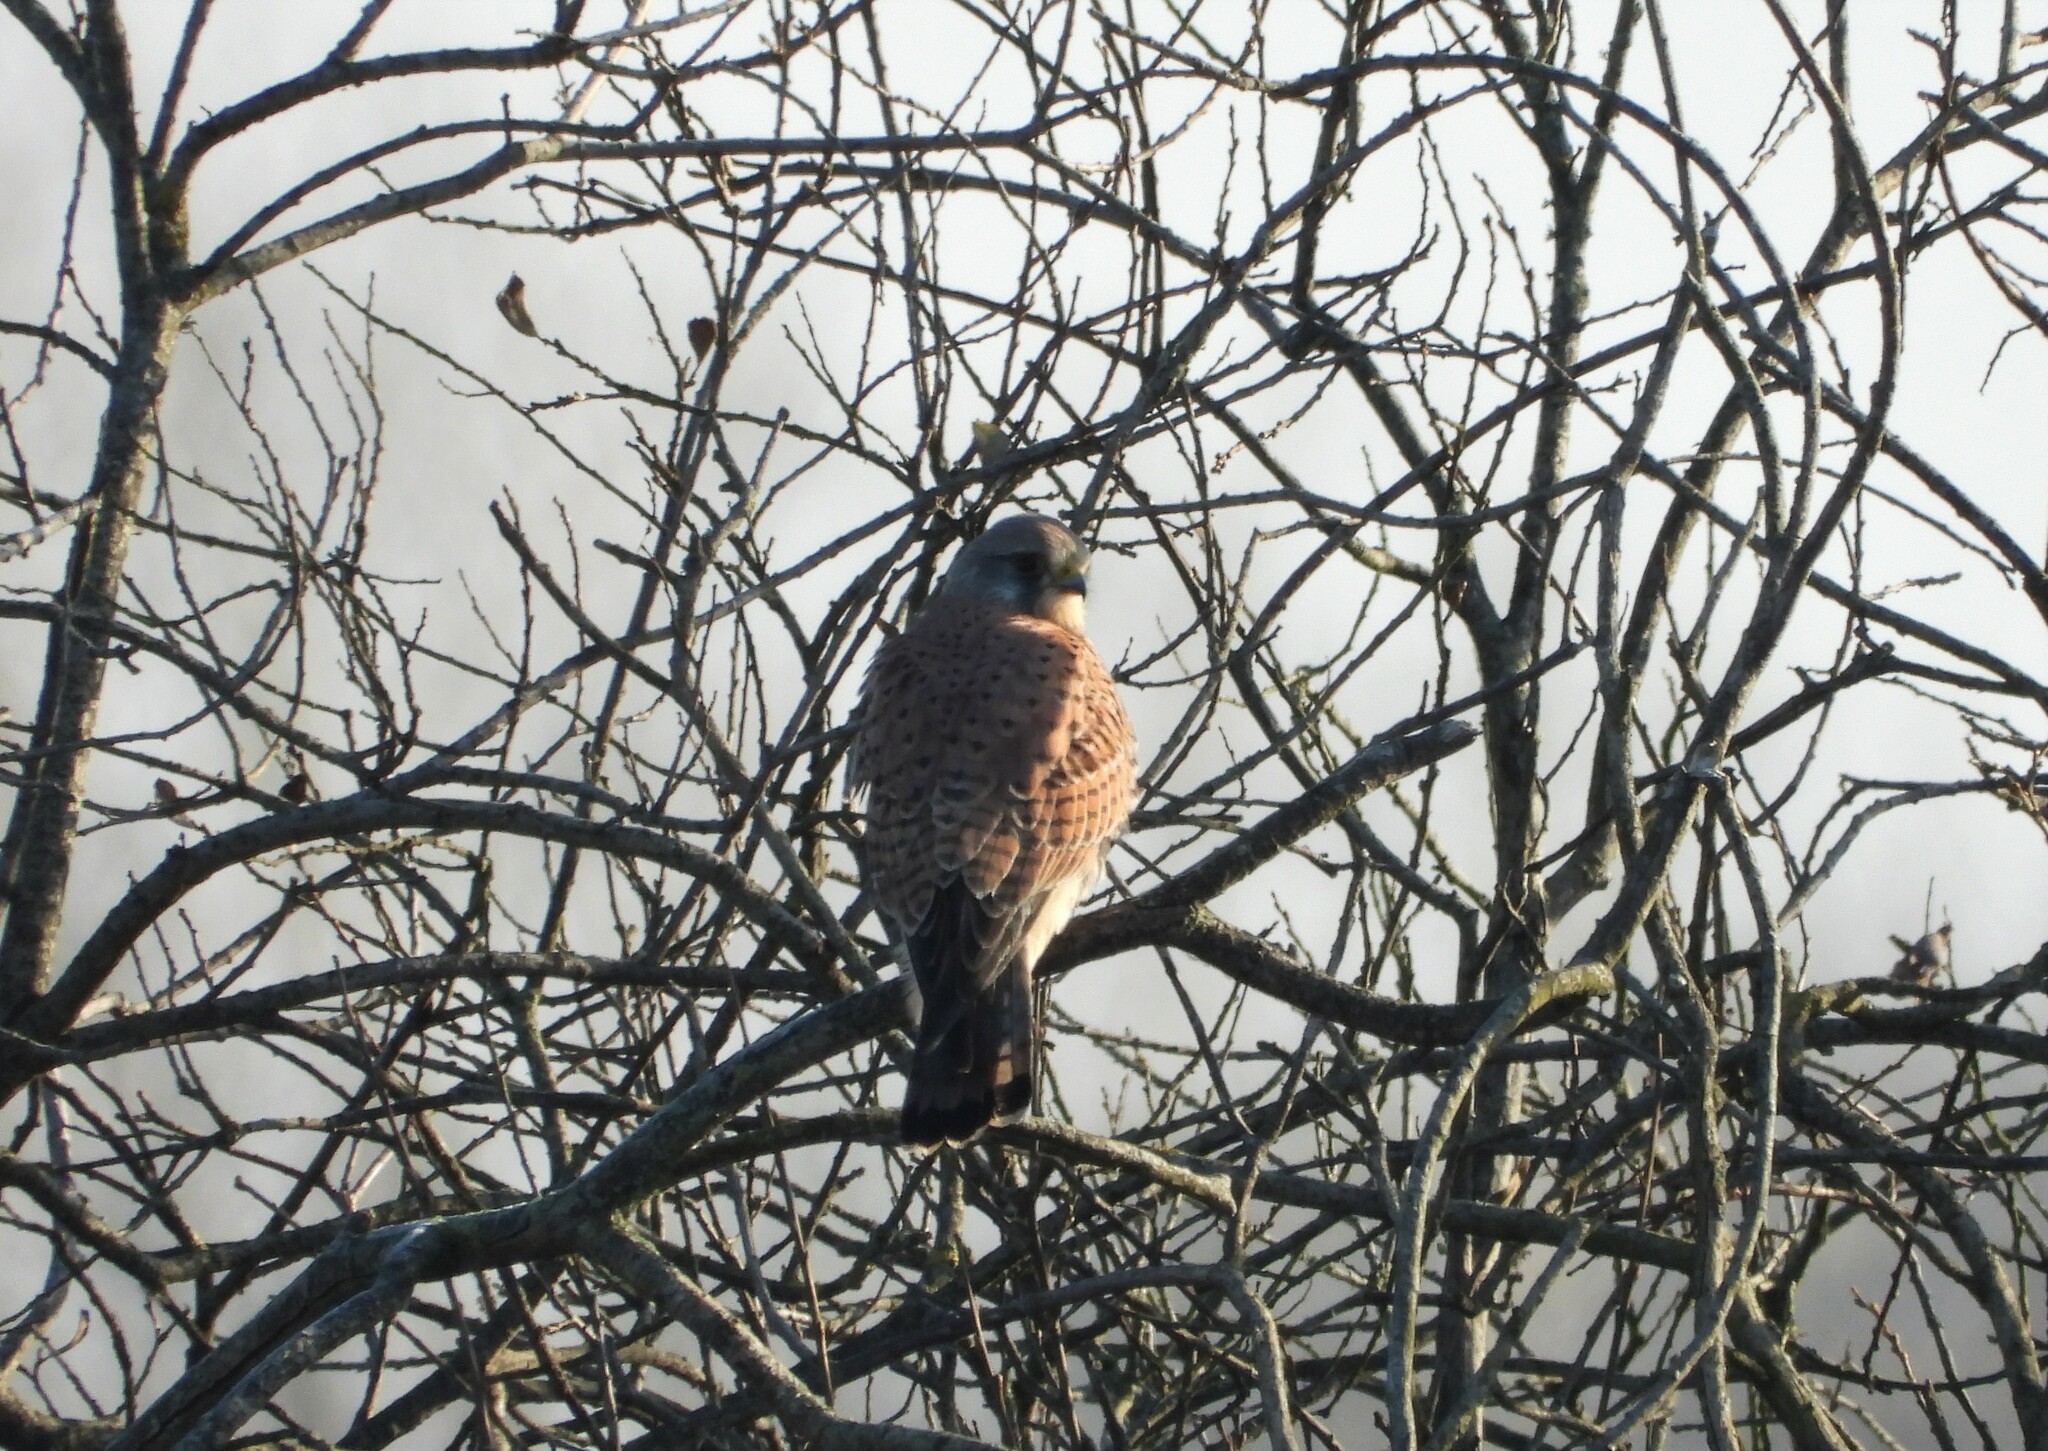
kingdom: Animalia
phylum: Chordata
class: Aves
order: Falconiformes
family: Falconidae
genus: Falco
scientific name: Falco tinnunculus
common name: Common kestrel
